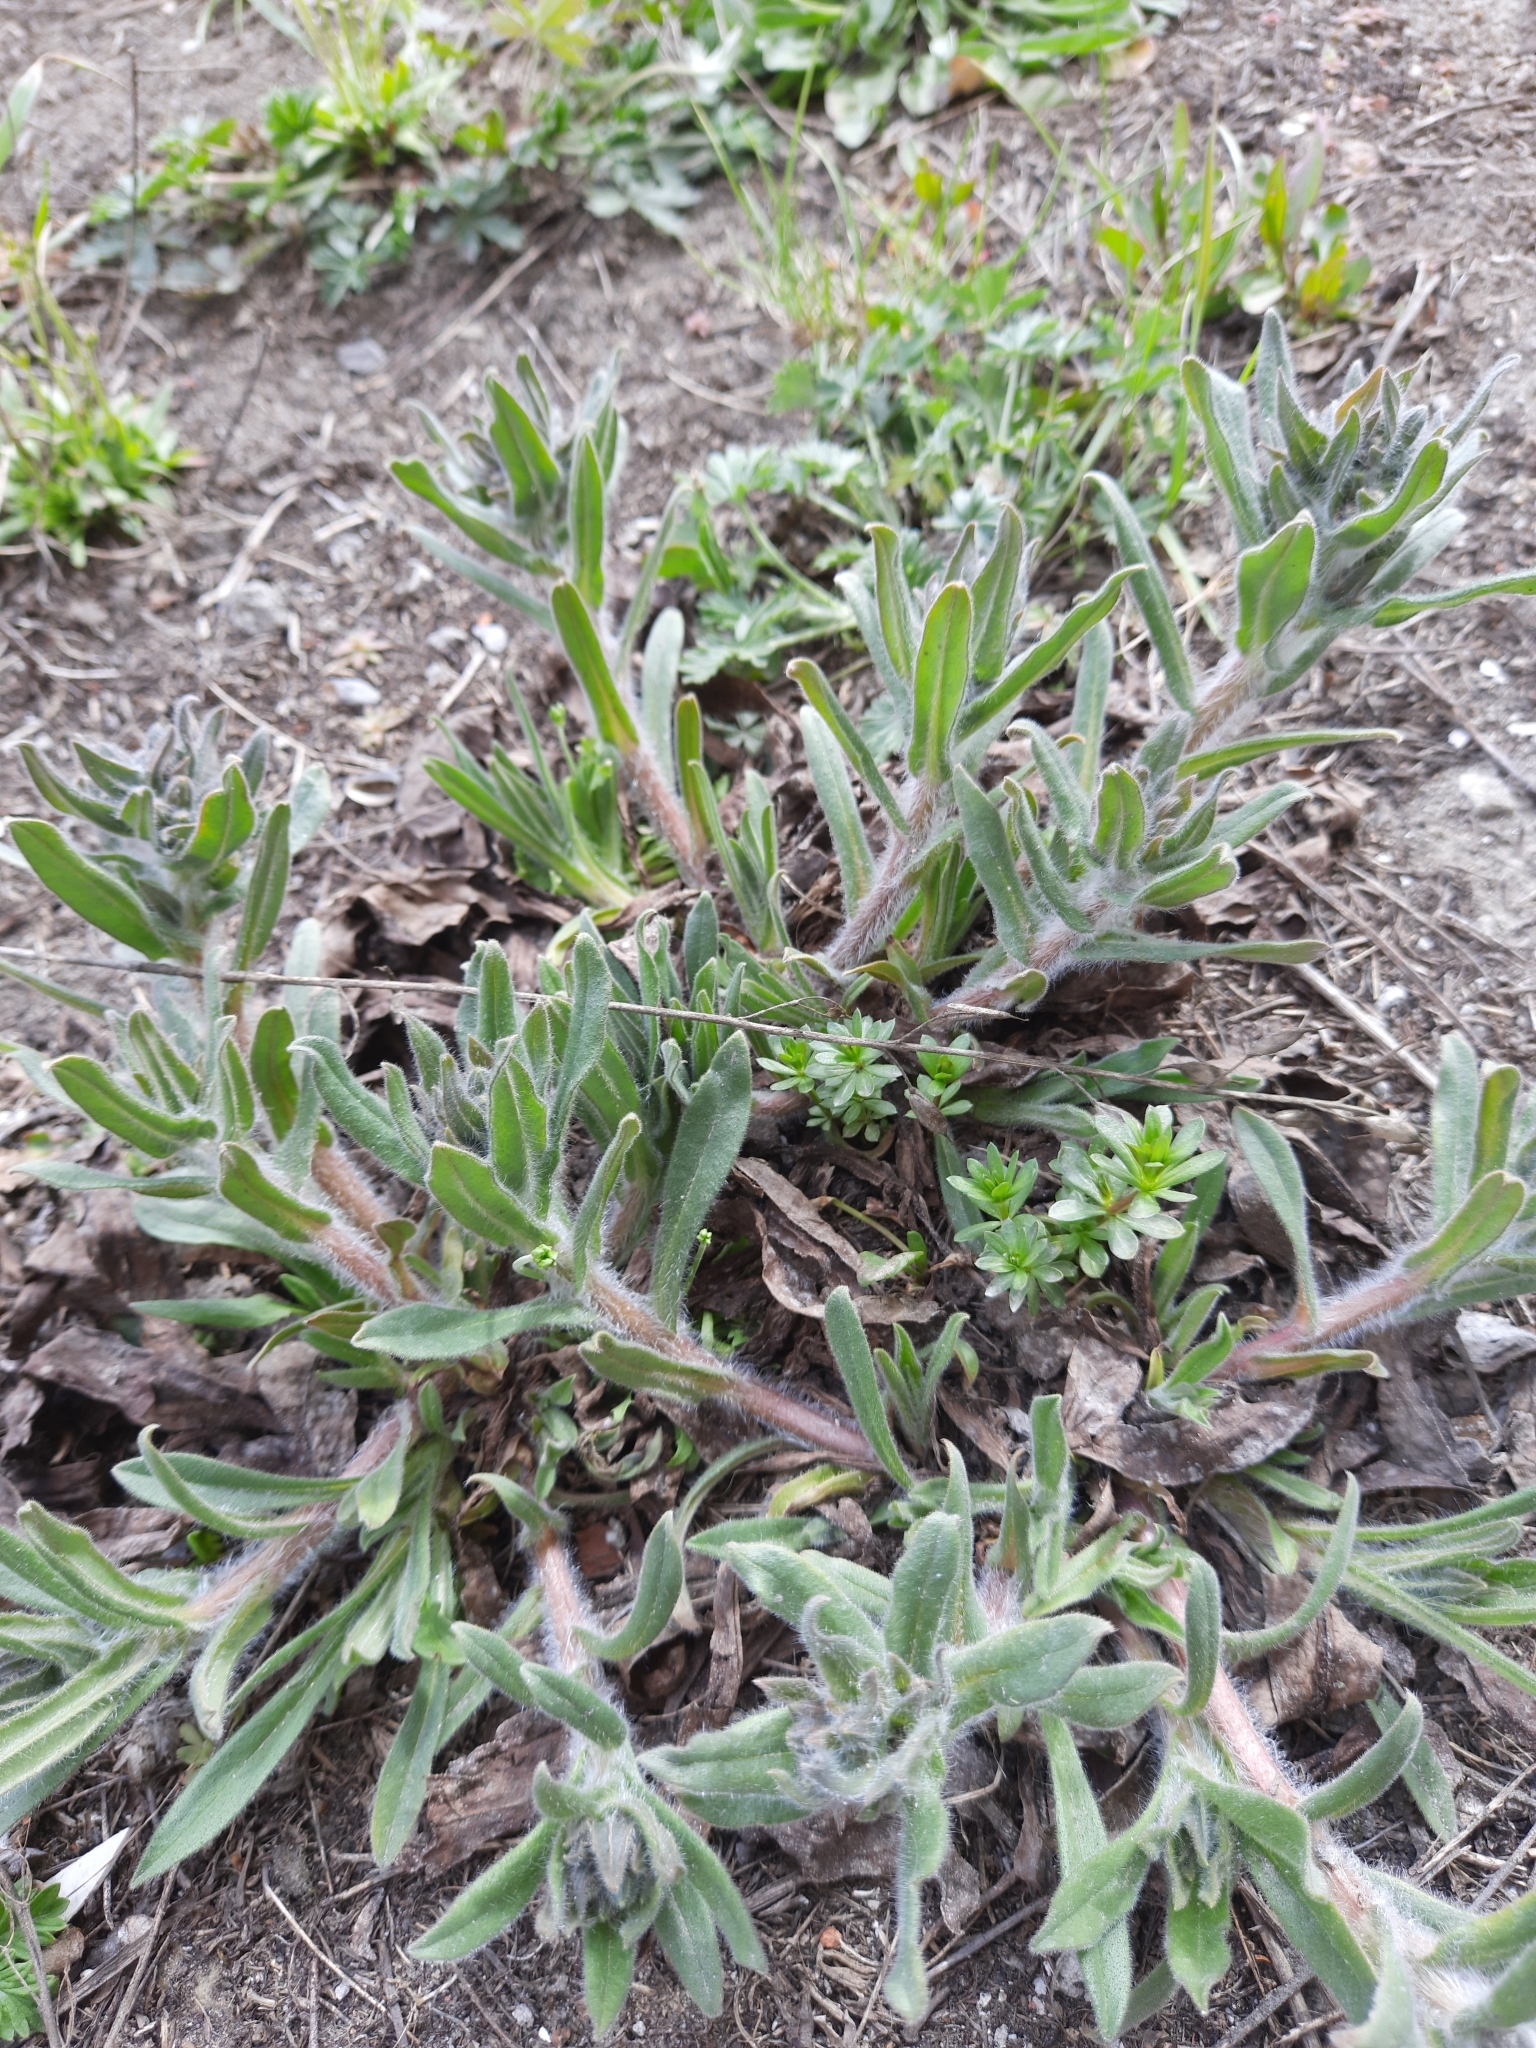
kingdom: Plantae
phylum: Tracheophyta
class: Magnoliopsida
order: Boraginales
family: Boraginaceae
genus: Nonea
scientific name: Nonea pulla
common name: Brown nonea
